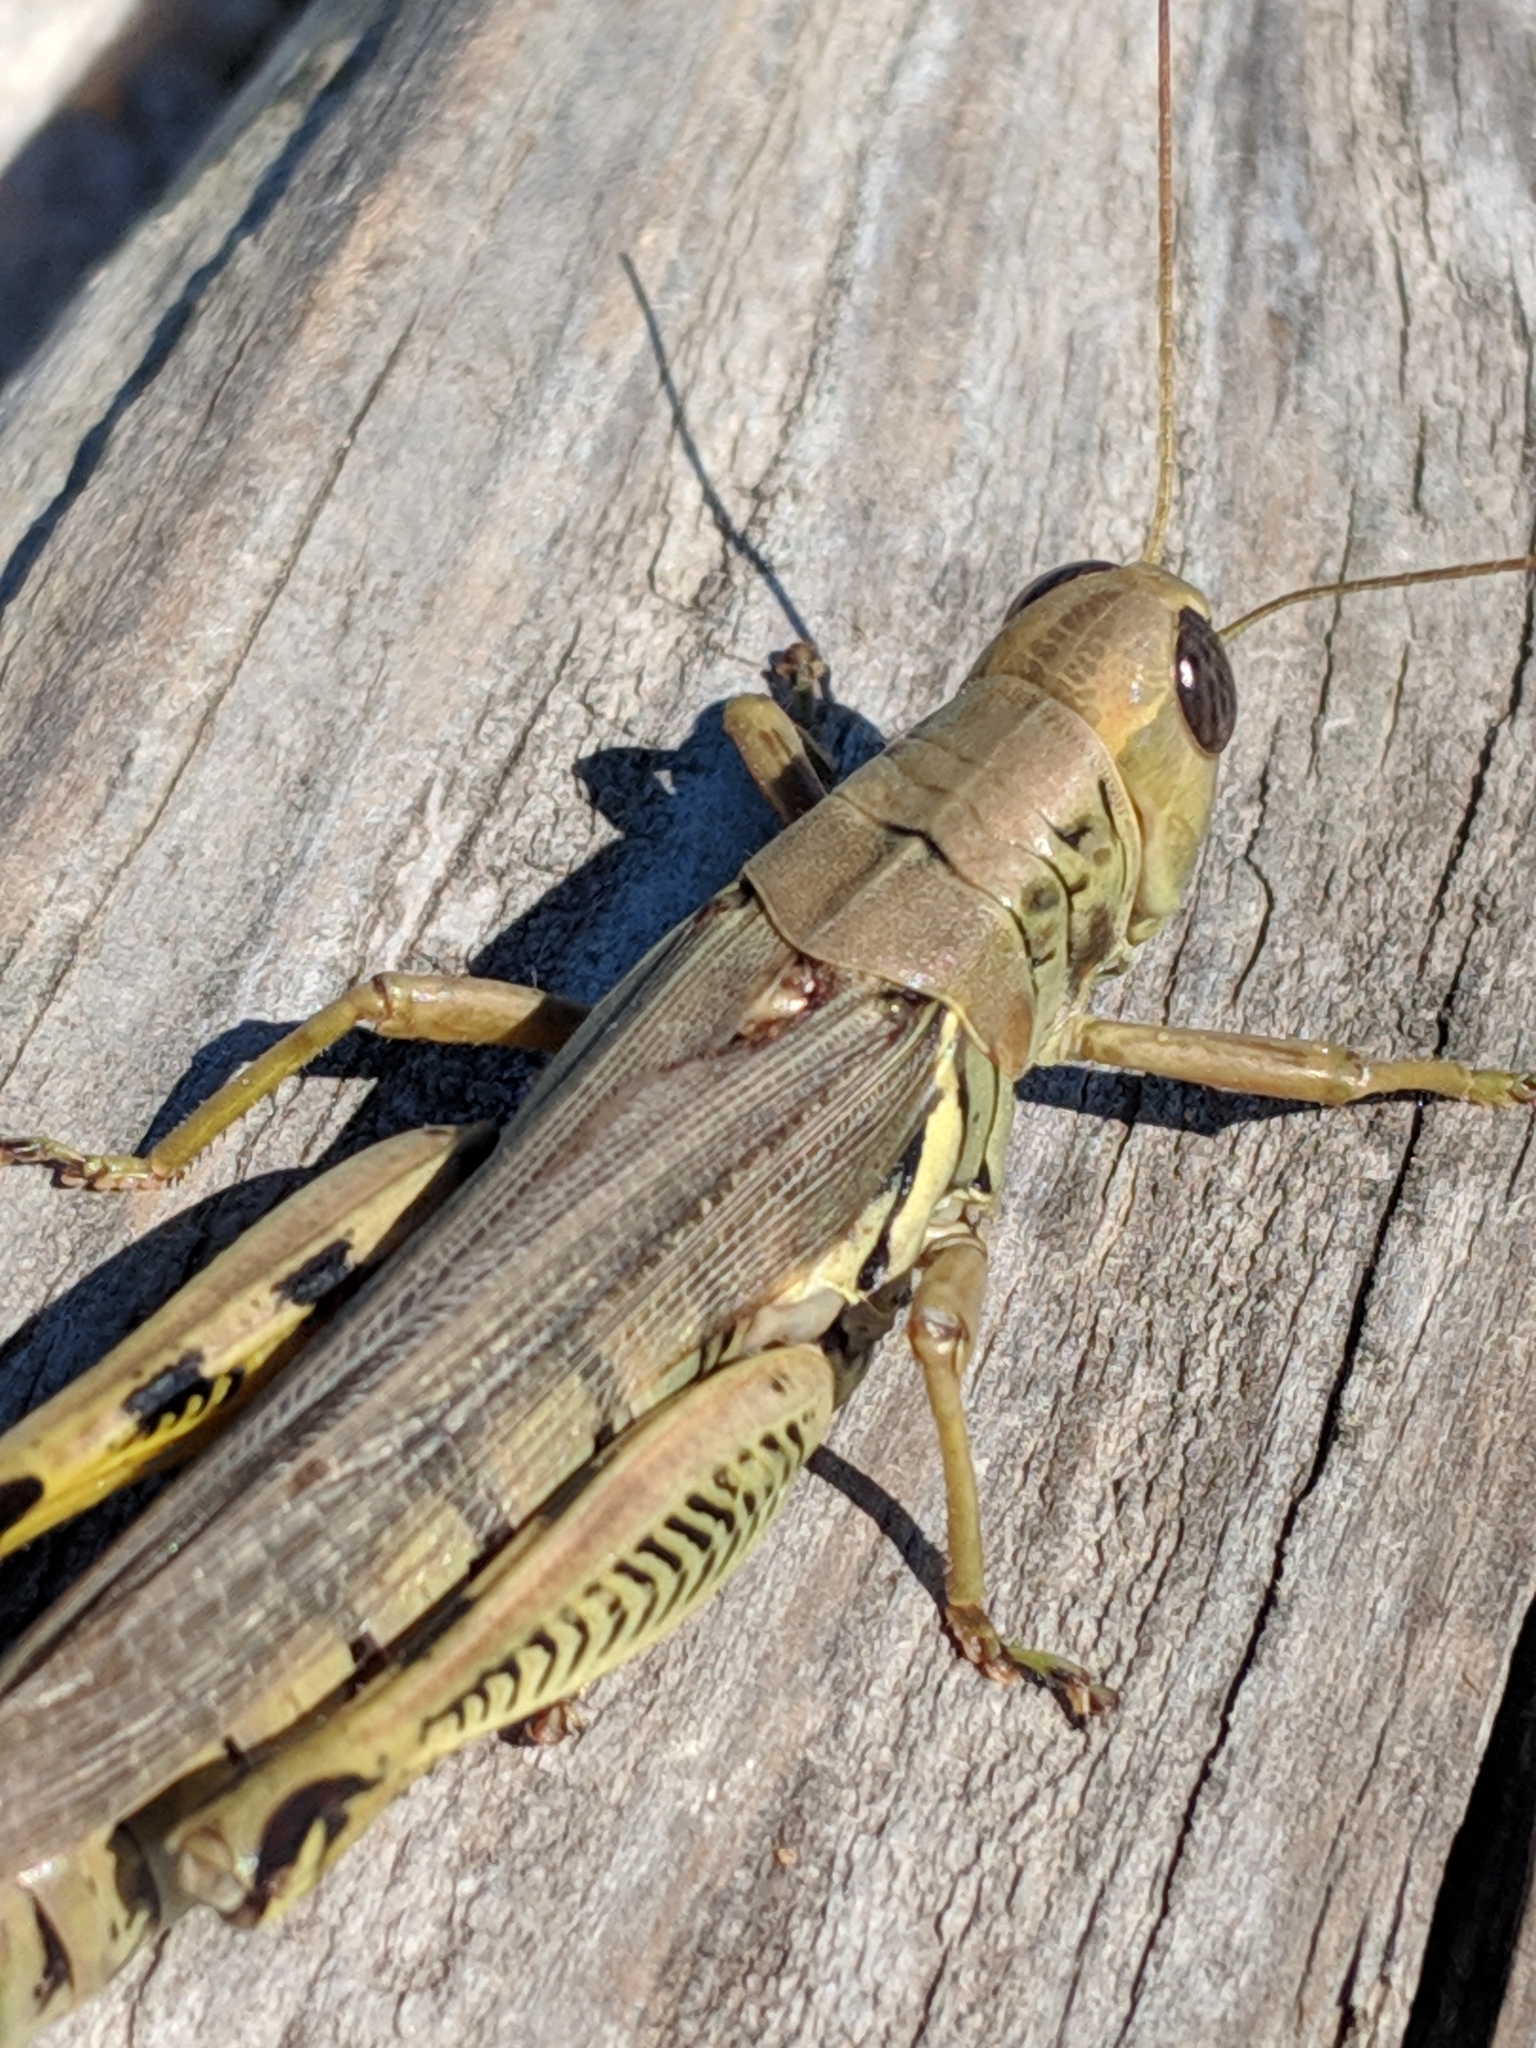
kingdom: Animalia
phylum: Arthropoda
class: Insecta
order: Orthoptera
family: Acrididae
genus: Melanoplus
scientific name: Melanoplus differentialis
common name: Differential grasshopper
